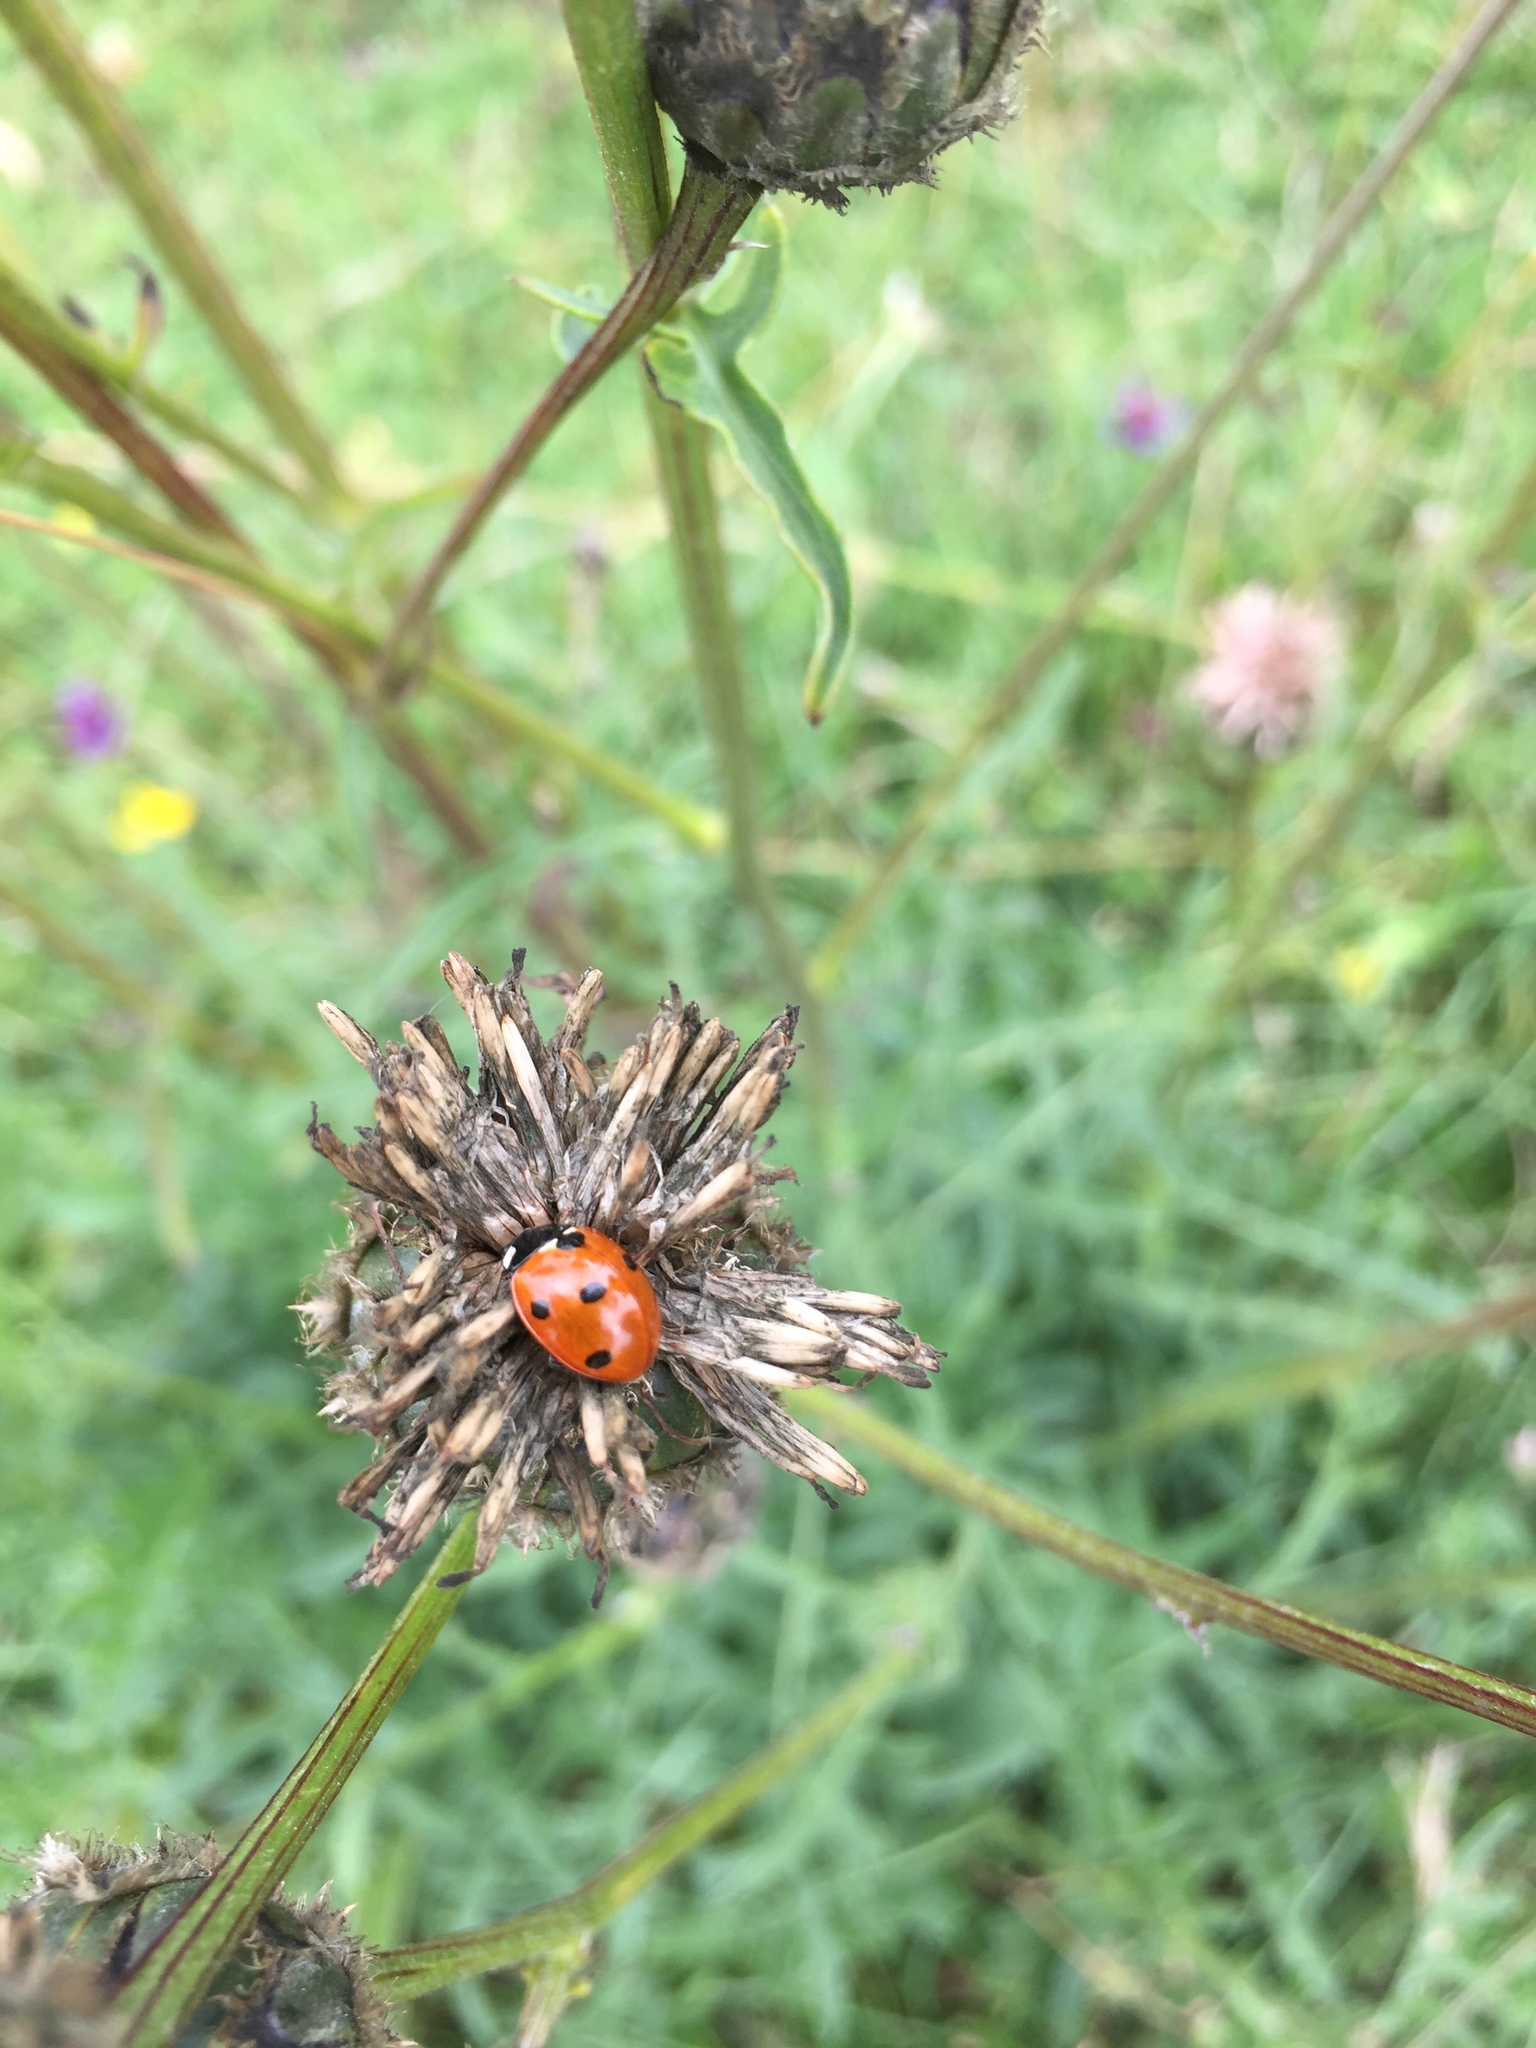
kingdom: Animalia
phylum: Arthropoda
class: Insecta
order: Coleoptera
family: Coccinellidae
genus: Coccinella
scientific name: Coccinella septempunctata
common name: Sevenspotted lady beetle
